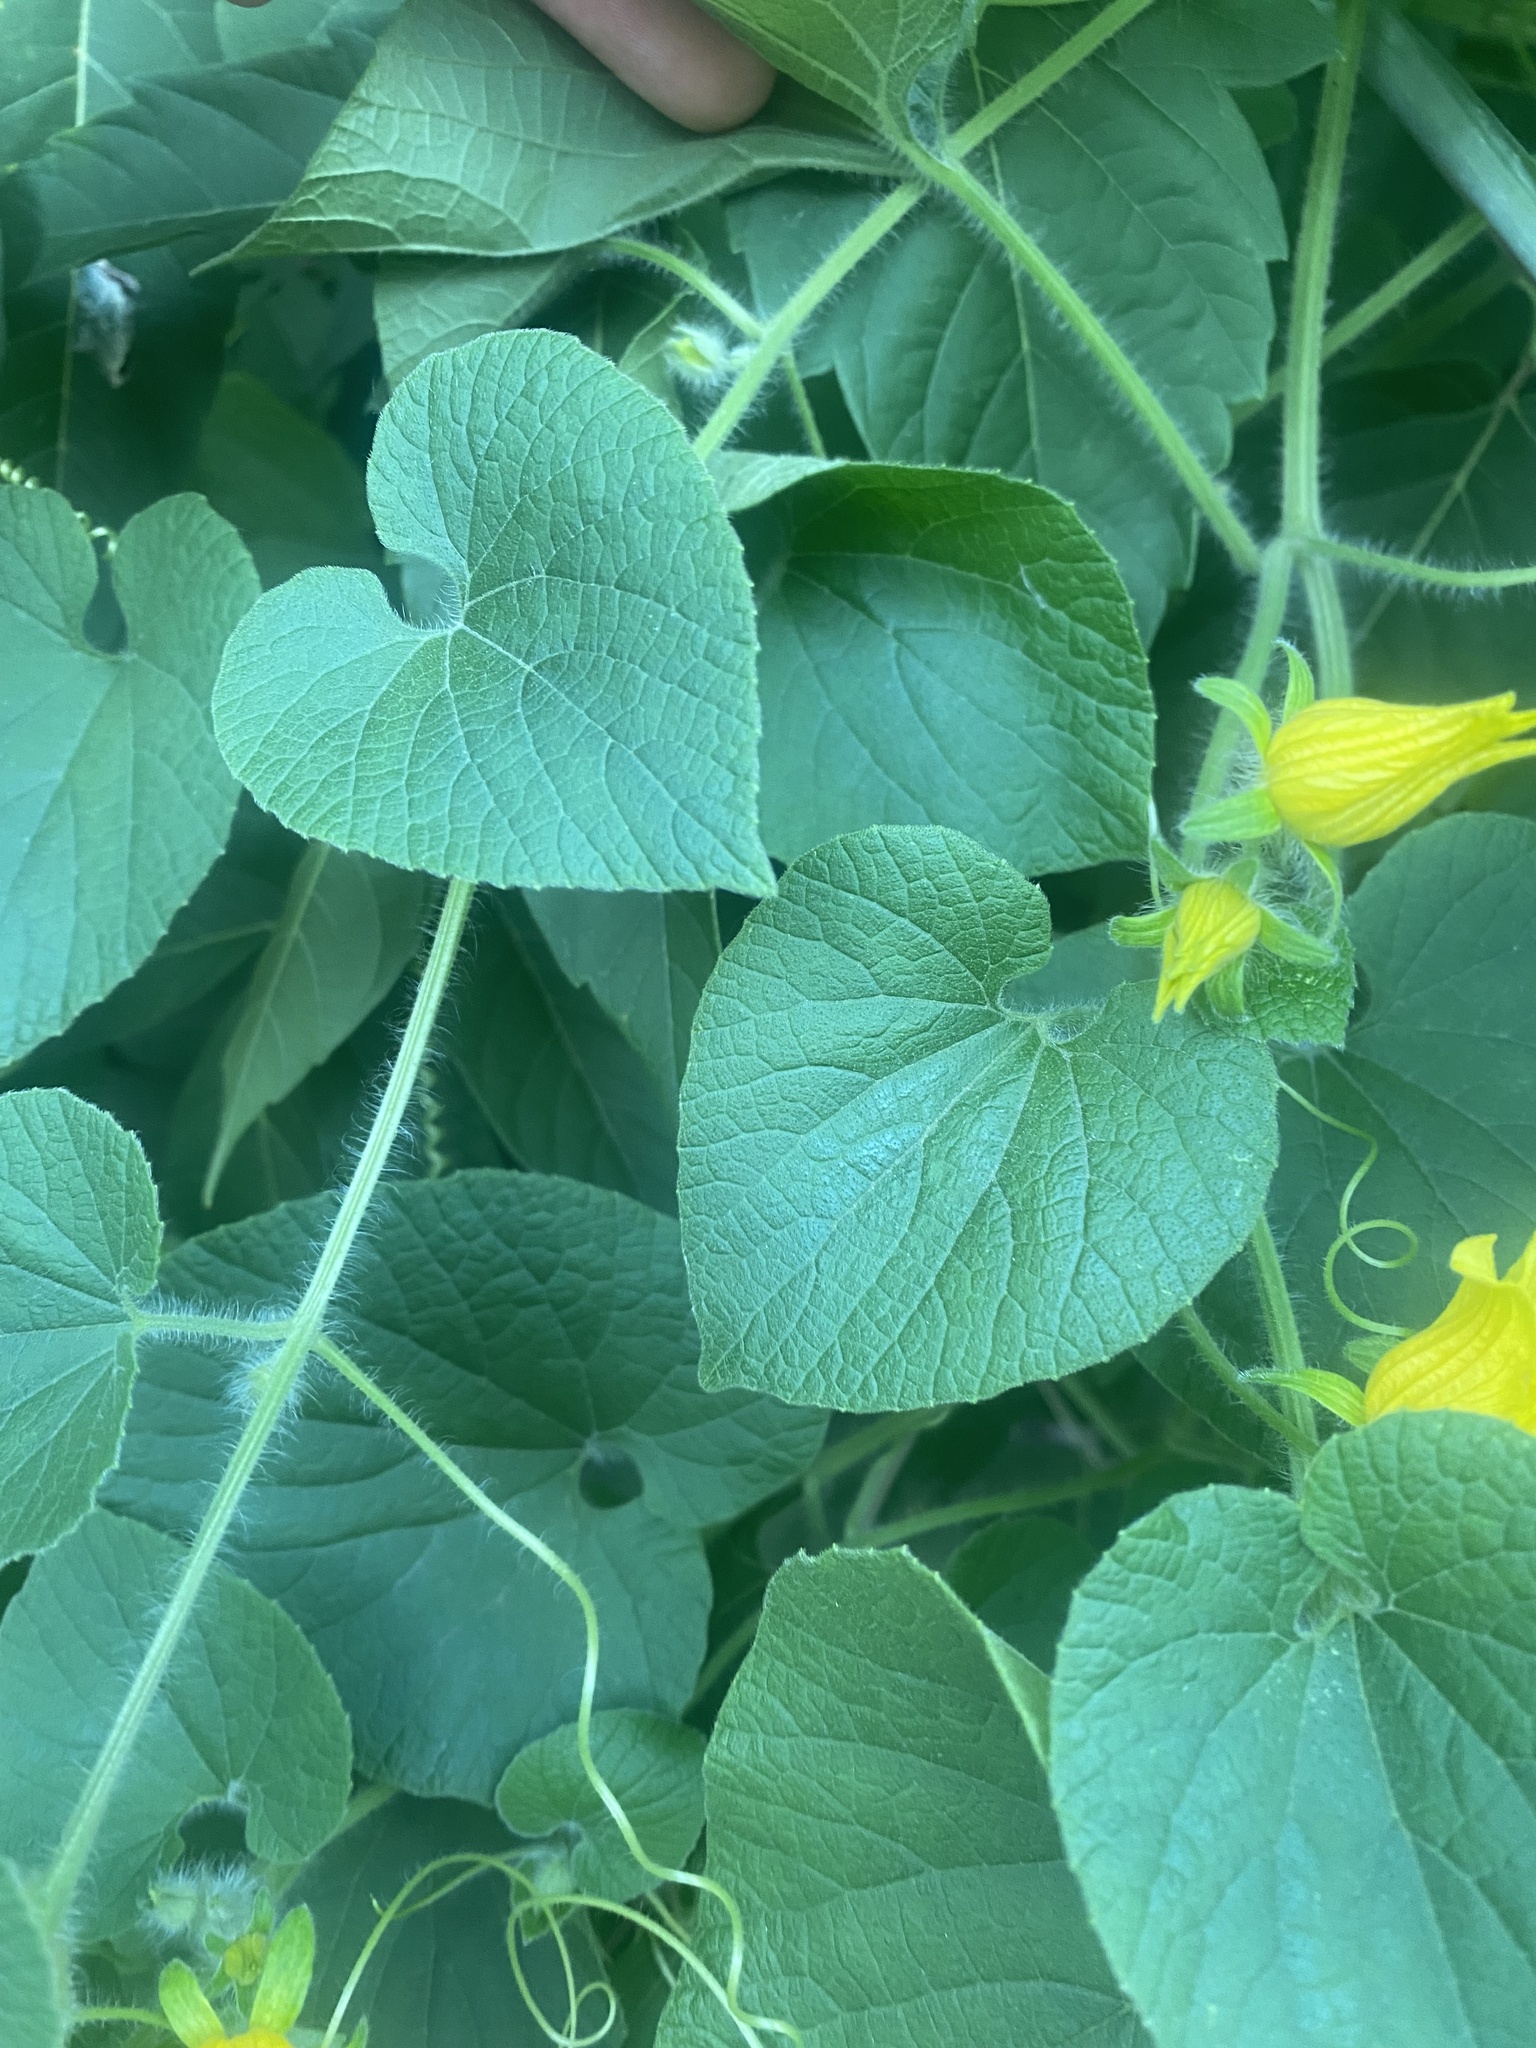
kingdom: Plantae
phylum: Tracheophyta
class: Magnoliopsida
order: Cucurbitales
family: Cucurbitaceae
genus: Thladiantha
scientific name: Thladiantha dubia
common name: Manchu tubergourd
